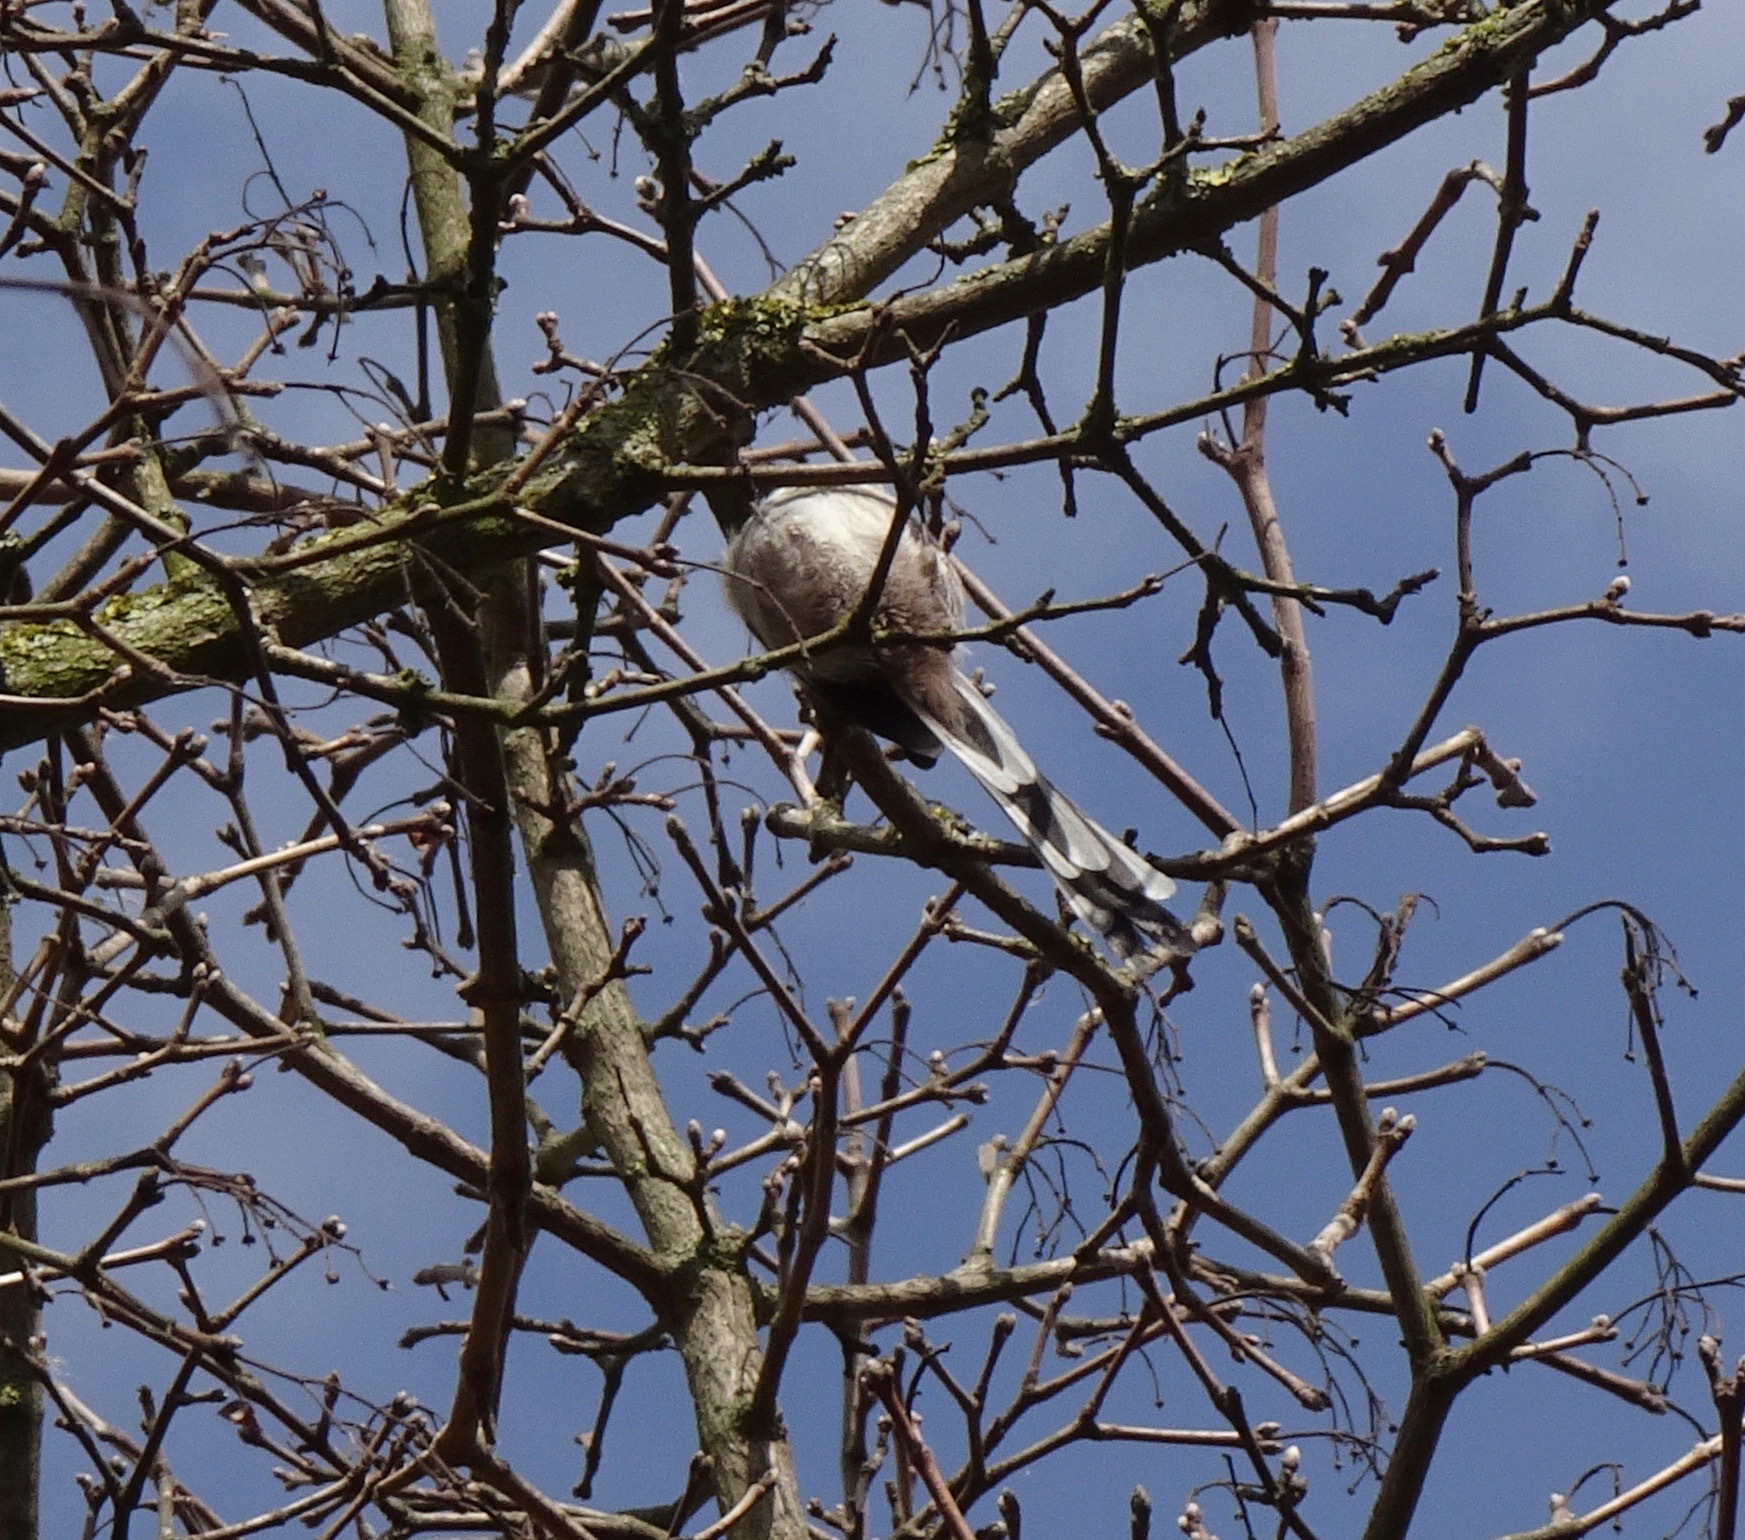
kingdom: Animalia
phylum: Chordata
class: Aves
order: Passeriformes
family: Aegithalidae
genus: Aegithalos
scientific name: Aegithalos caudatus
